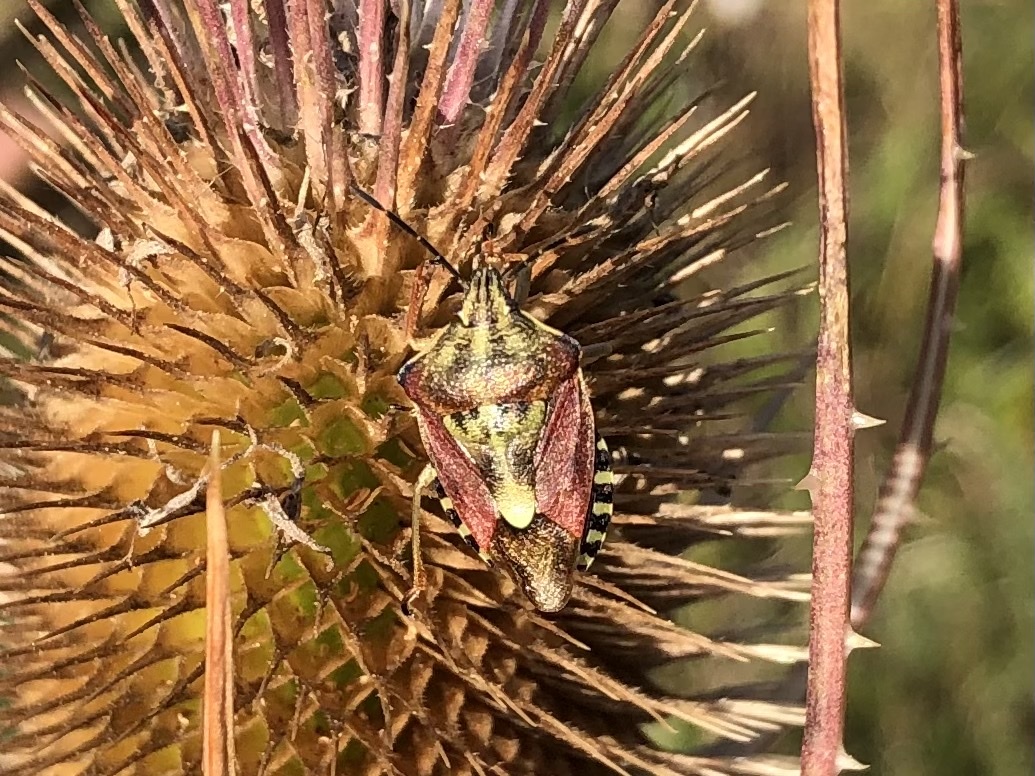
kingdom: Animalia
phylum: Arthropoda
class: Insecta
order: Hemiptera
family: Pentatomidae
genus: Carpocoris
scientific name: Carpocoris purpureipennis
